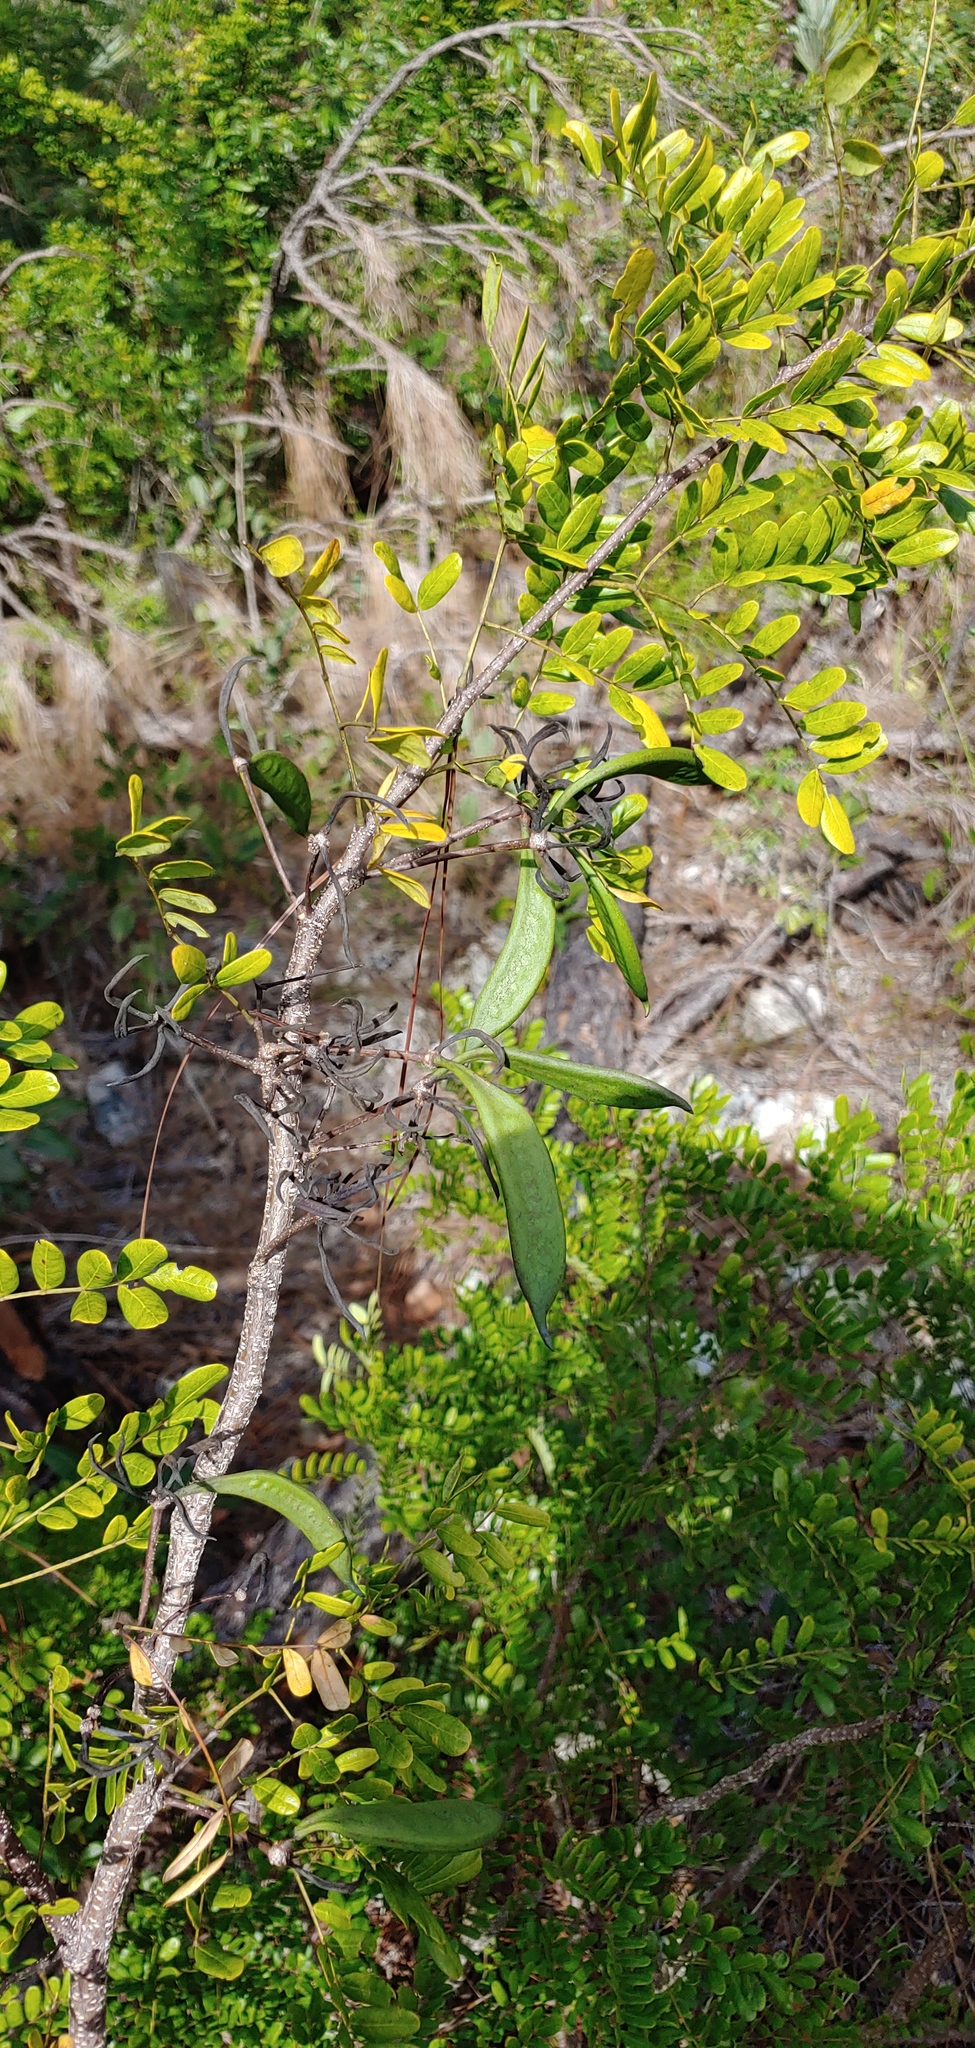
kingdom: Plantae
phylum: Tracheophyta
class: Magnoliopsida
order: Fabales
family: Fabaceae
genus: Vachellia
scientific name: Vachellia choriophylla
